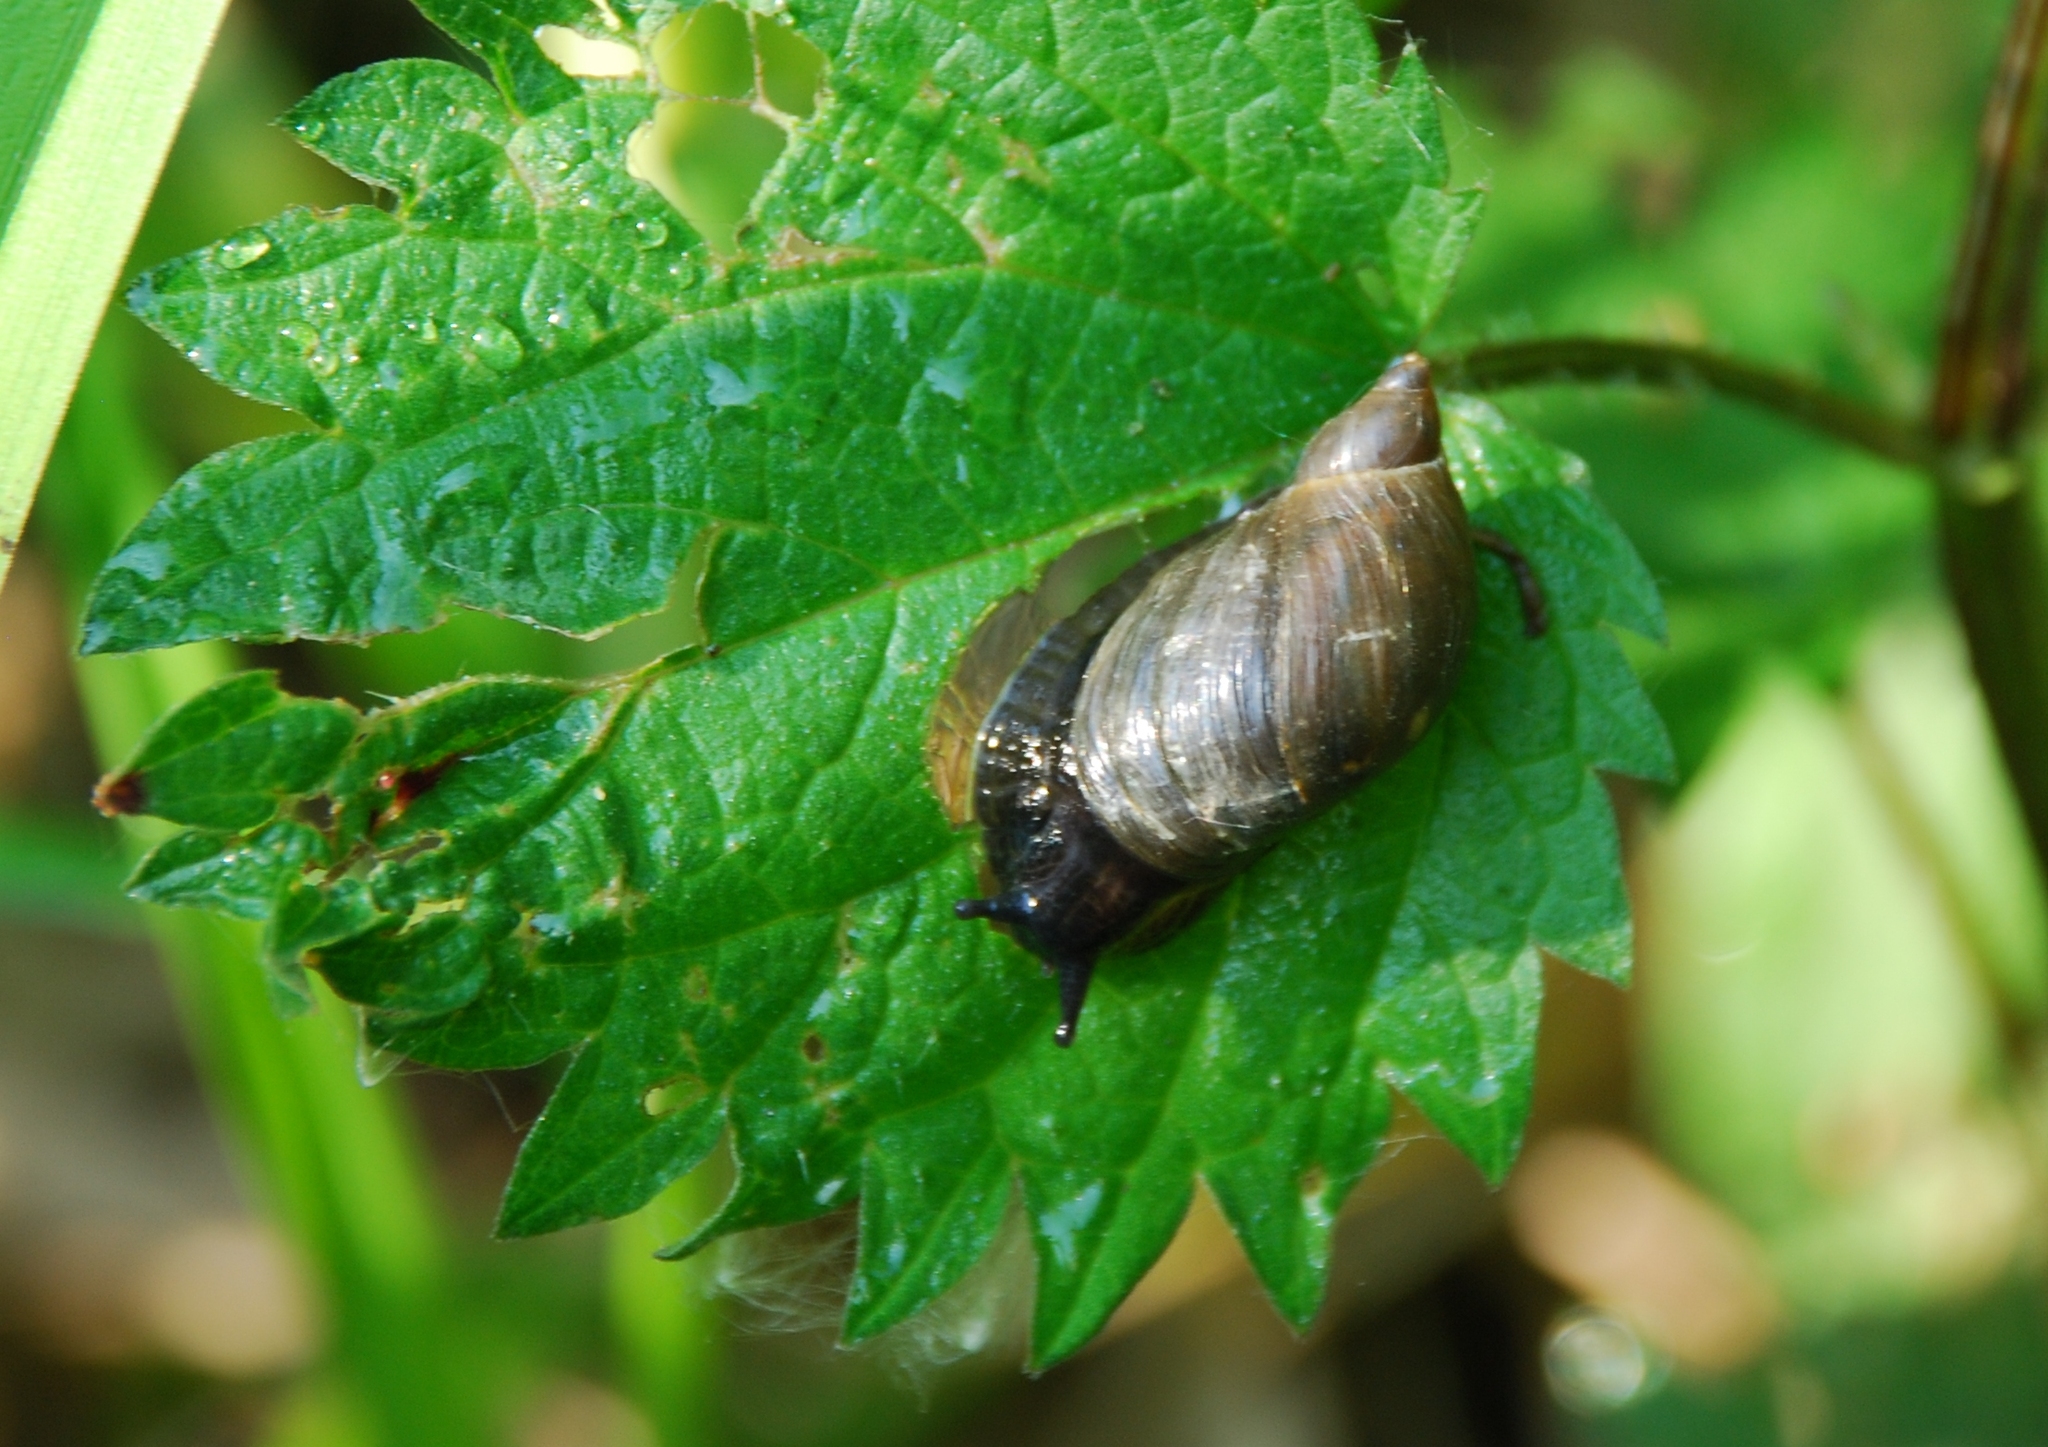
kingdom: Animalia
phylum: Mollusca
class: Gastropoda
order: Stylommatophora
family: Succineidae
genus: Succinea
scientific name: Succinea putris
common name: European ambersnail
